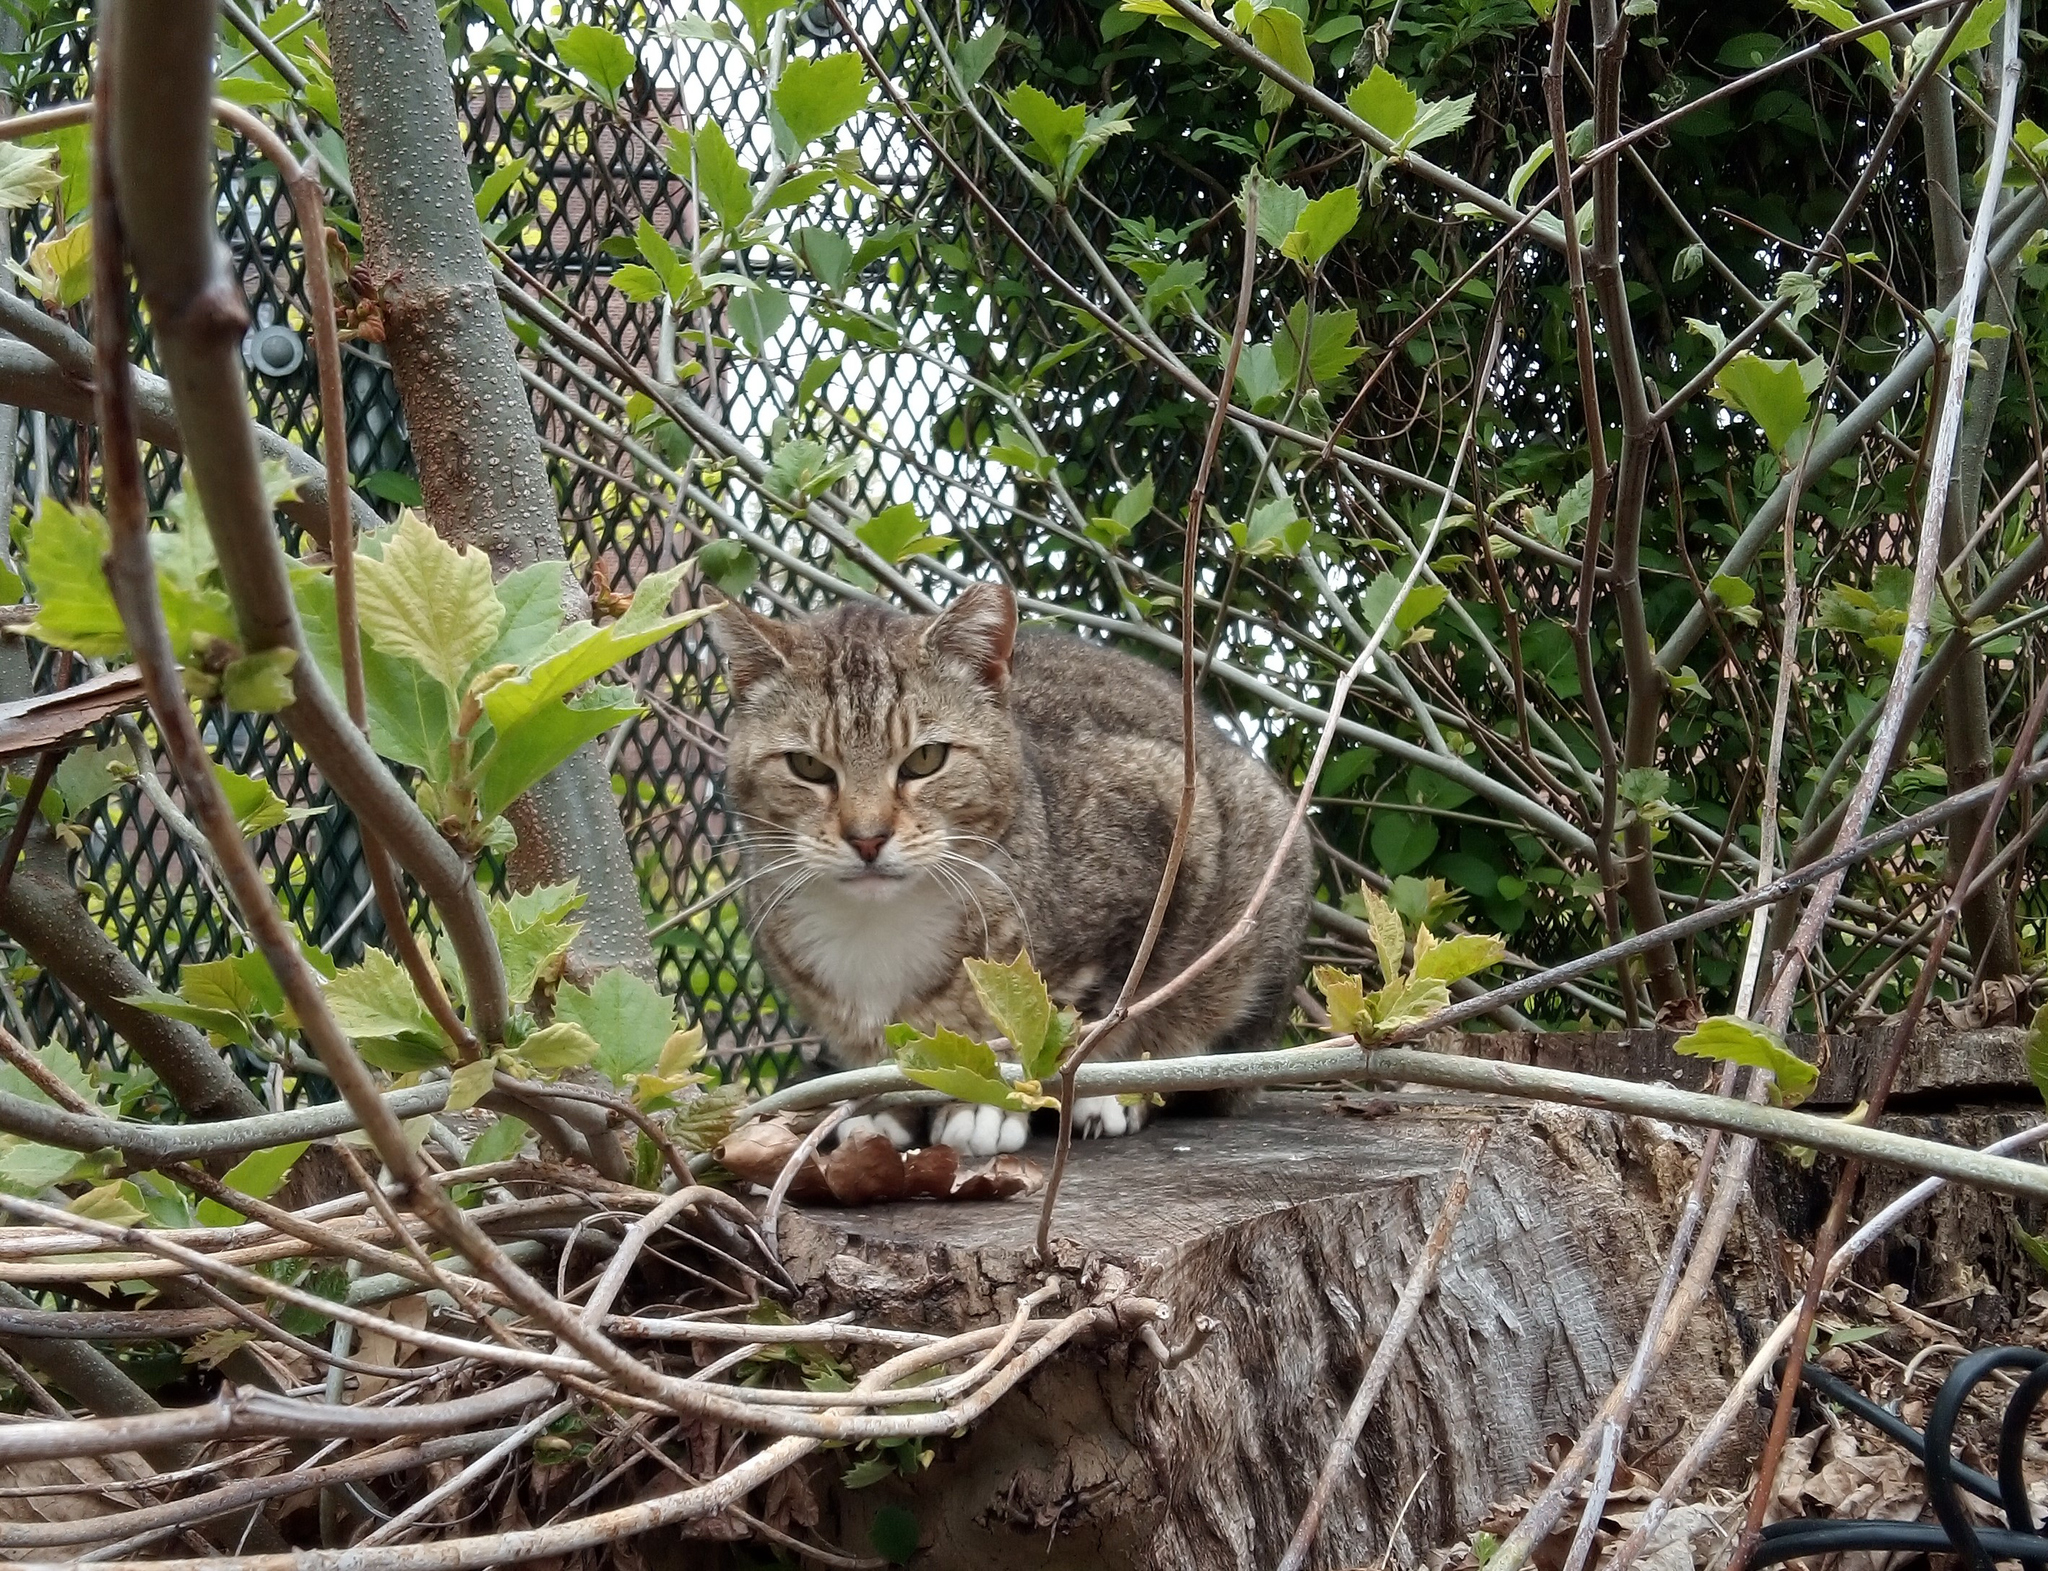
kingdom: Animalia
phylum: Chordata
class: Mammalia
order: Carnivora
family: Felidae
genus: Felis
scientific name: Felis catus
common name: Domestic cat
